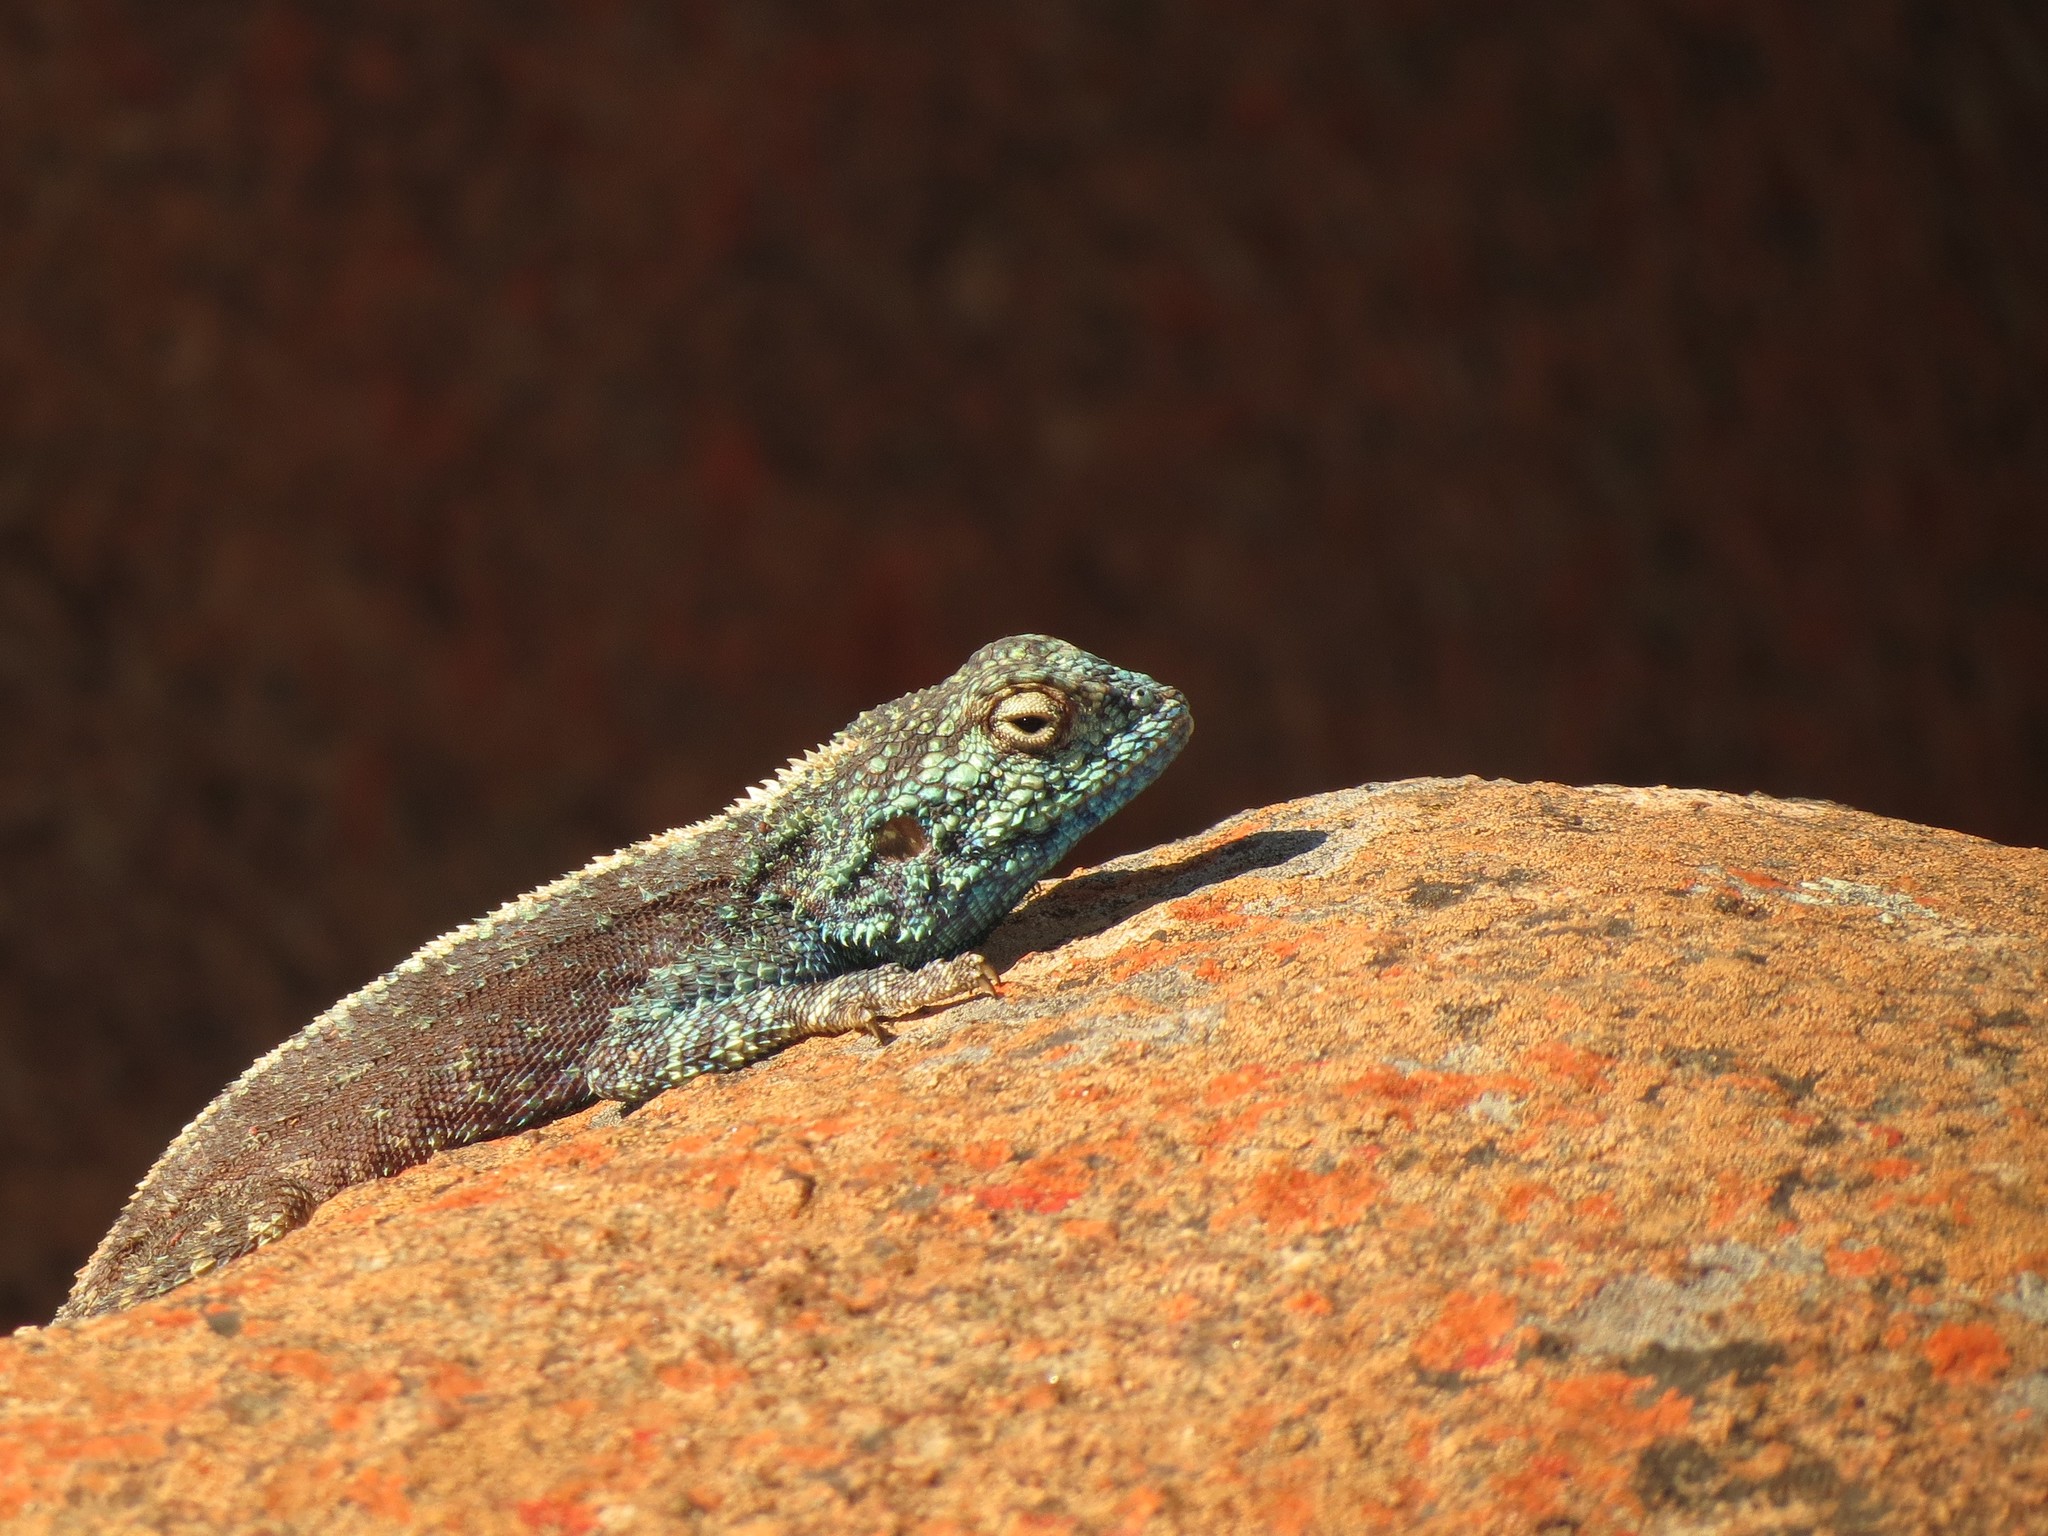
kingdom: Animalia
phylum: Chordata
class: Squamata
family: Agamidae
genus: Agama
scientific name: Agama atra
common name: Southern african rock agama
